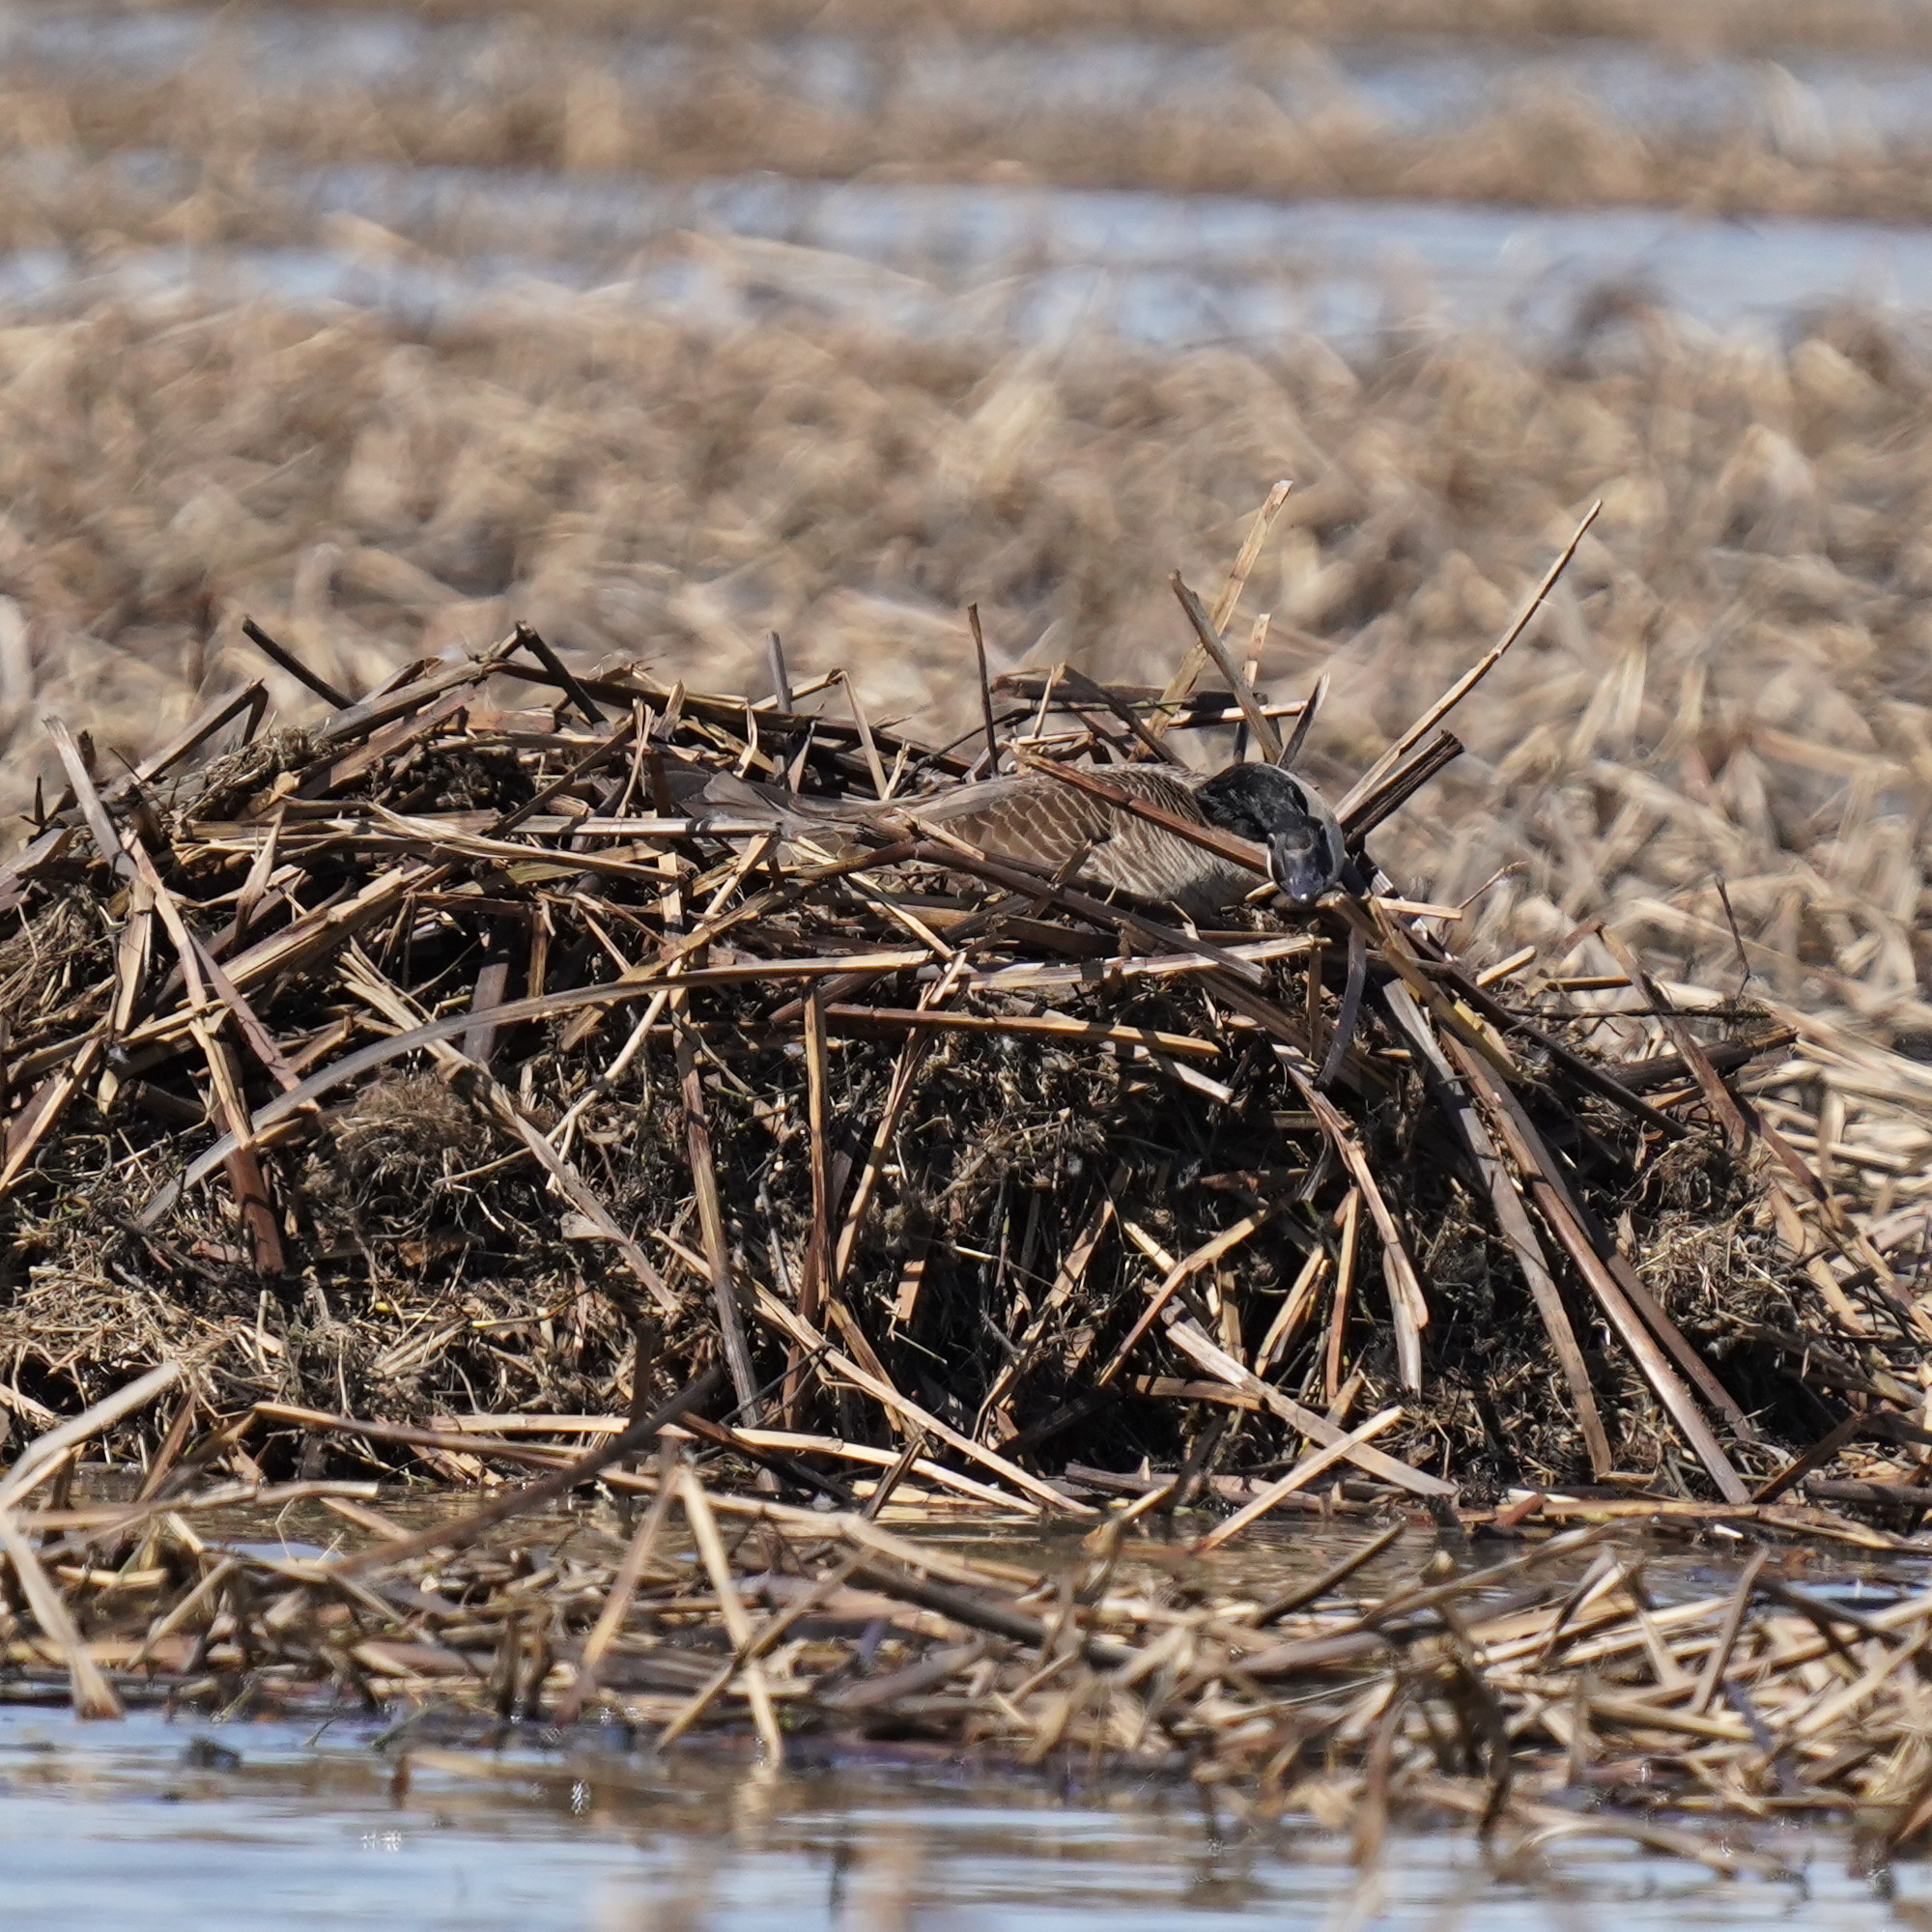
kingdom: Animalia
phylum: Chordata
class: Aves
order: Anseriformes
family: Anatidae
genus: Branta
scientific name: Branta canadensis
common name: Canada goose
